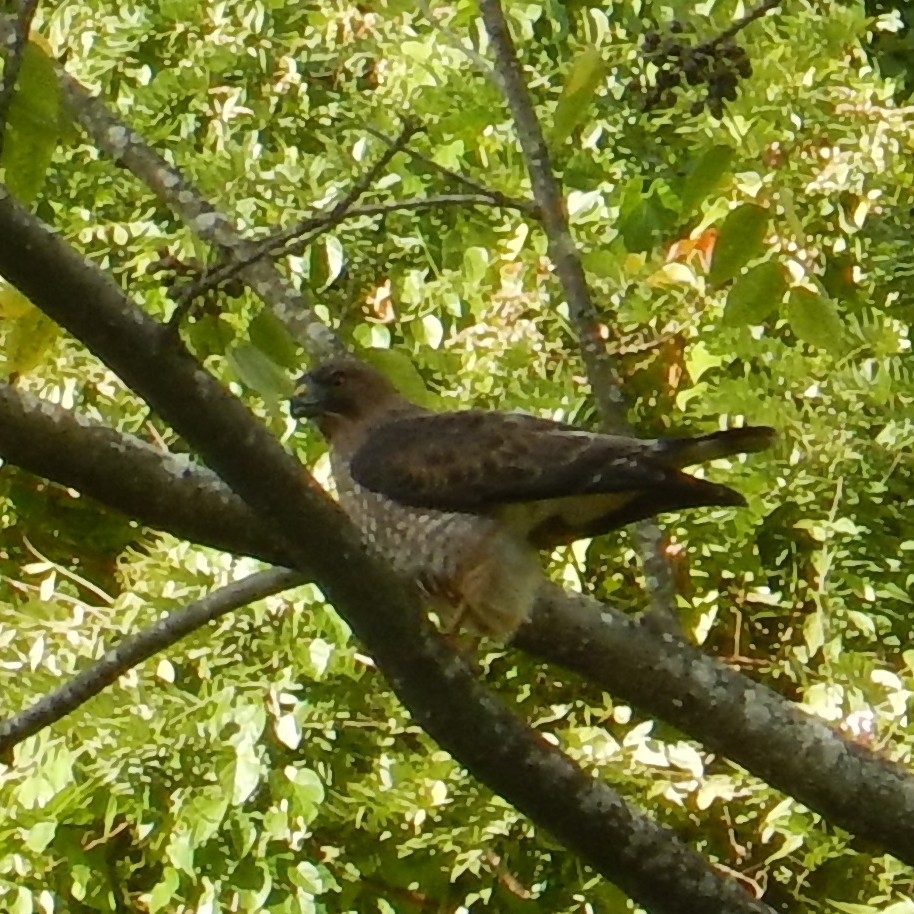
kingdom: Animalia
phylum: Chordata
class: Aves
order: Accipitriformes
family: Accipitridae
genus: Buteo
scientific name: Buteo platypterus
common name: Broad-winged hawk
